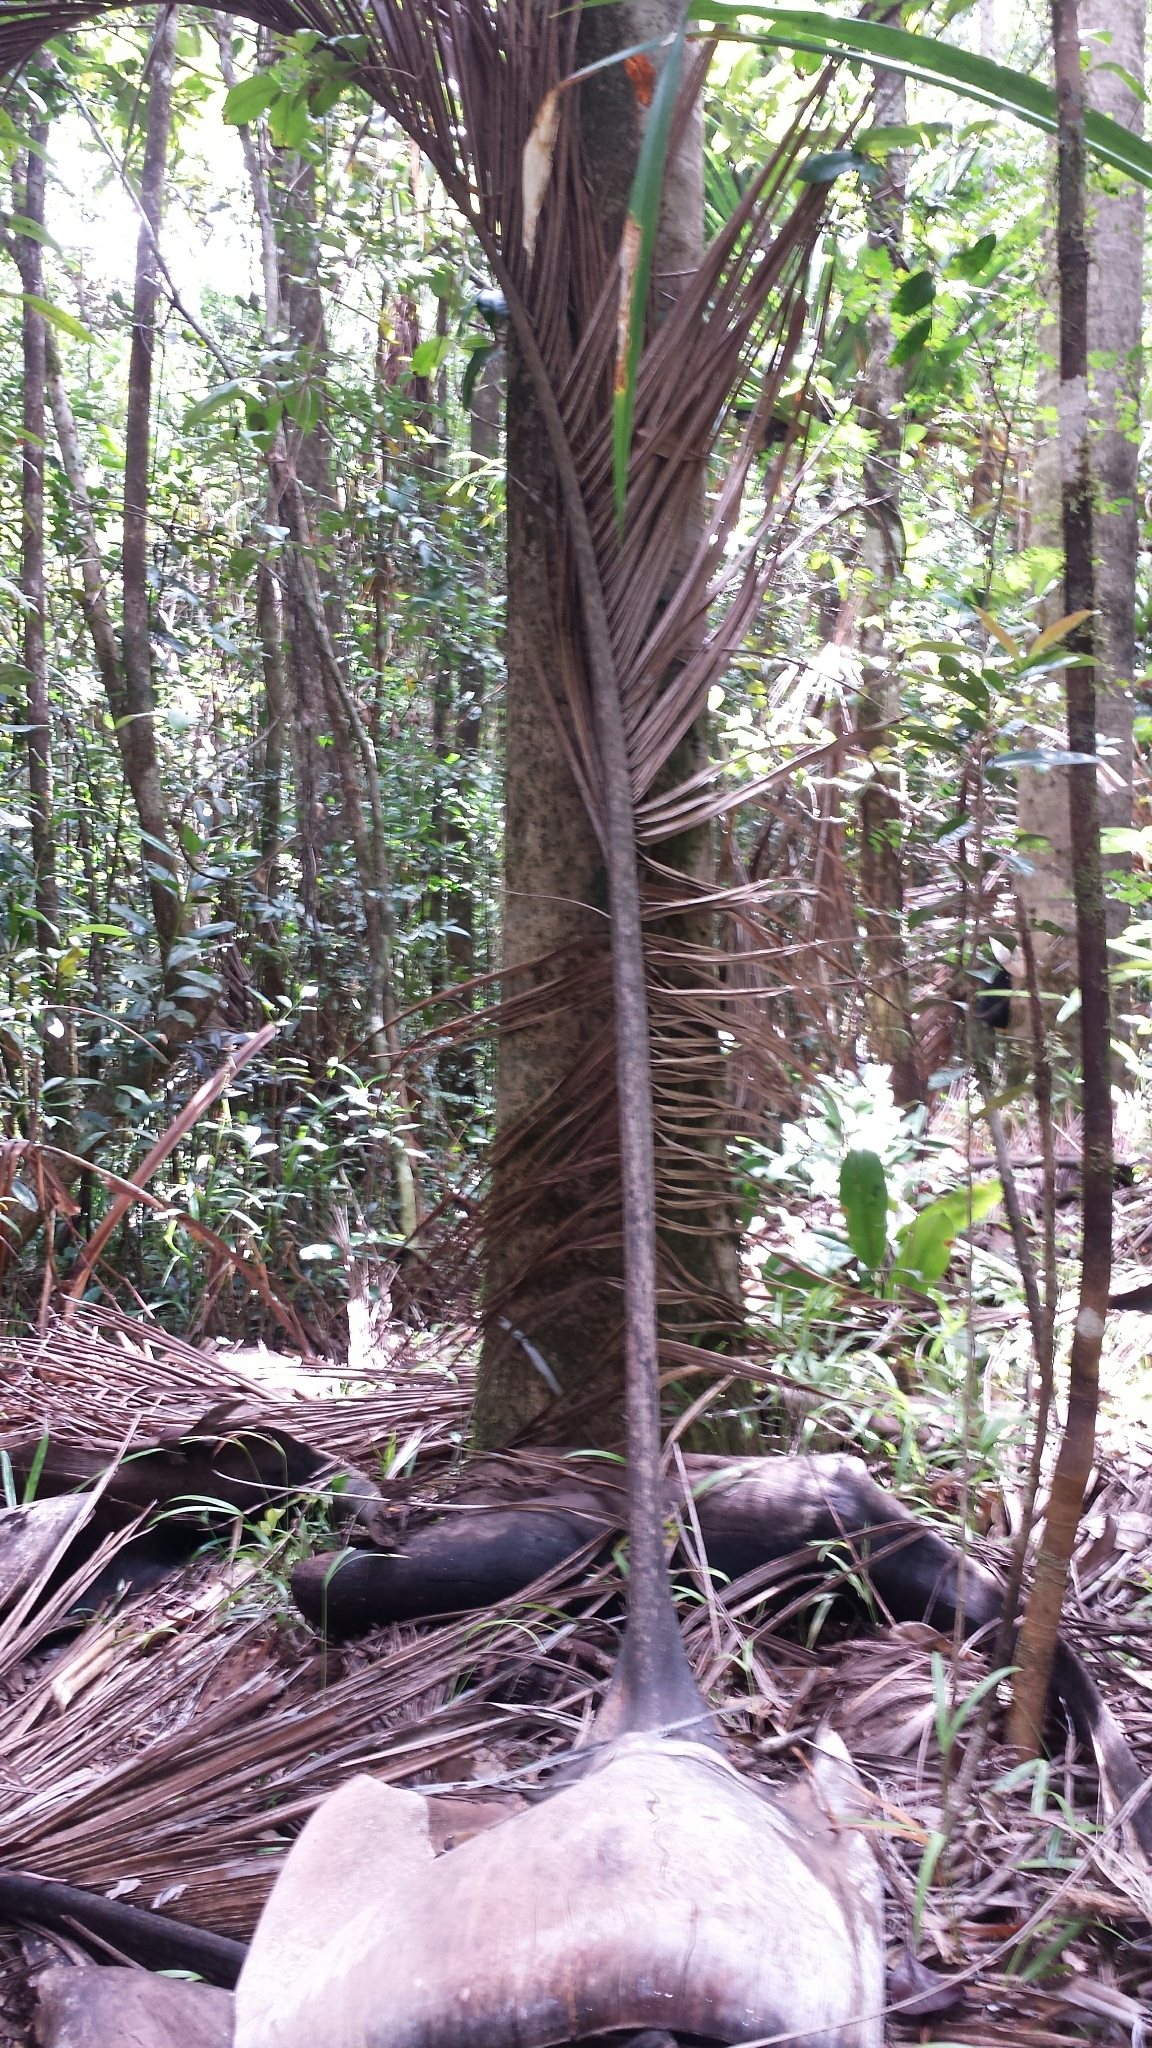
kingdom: Plantae
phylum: Tracheophyta
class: Liliopsida
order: Arecales
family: Arecaceae
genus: Dypsis
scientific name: Dypsis carlsmithii
